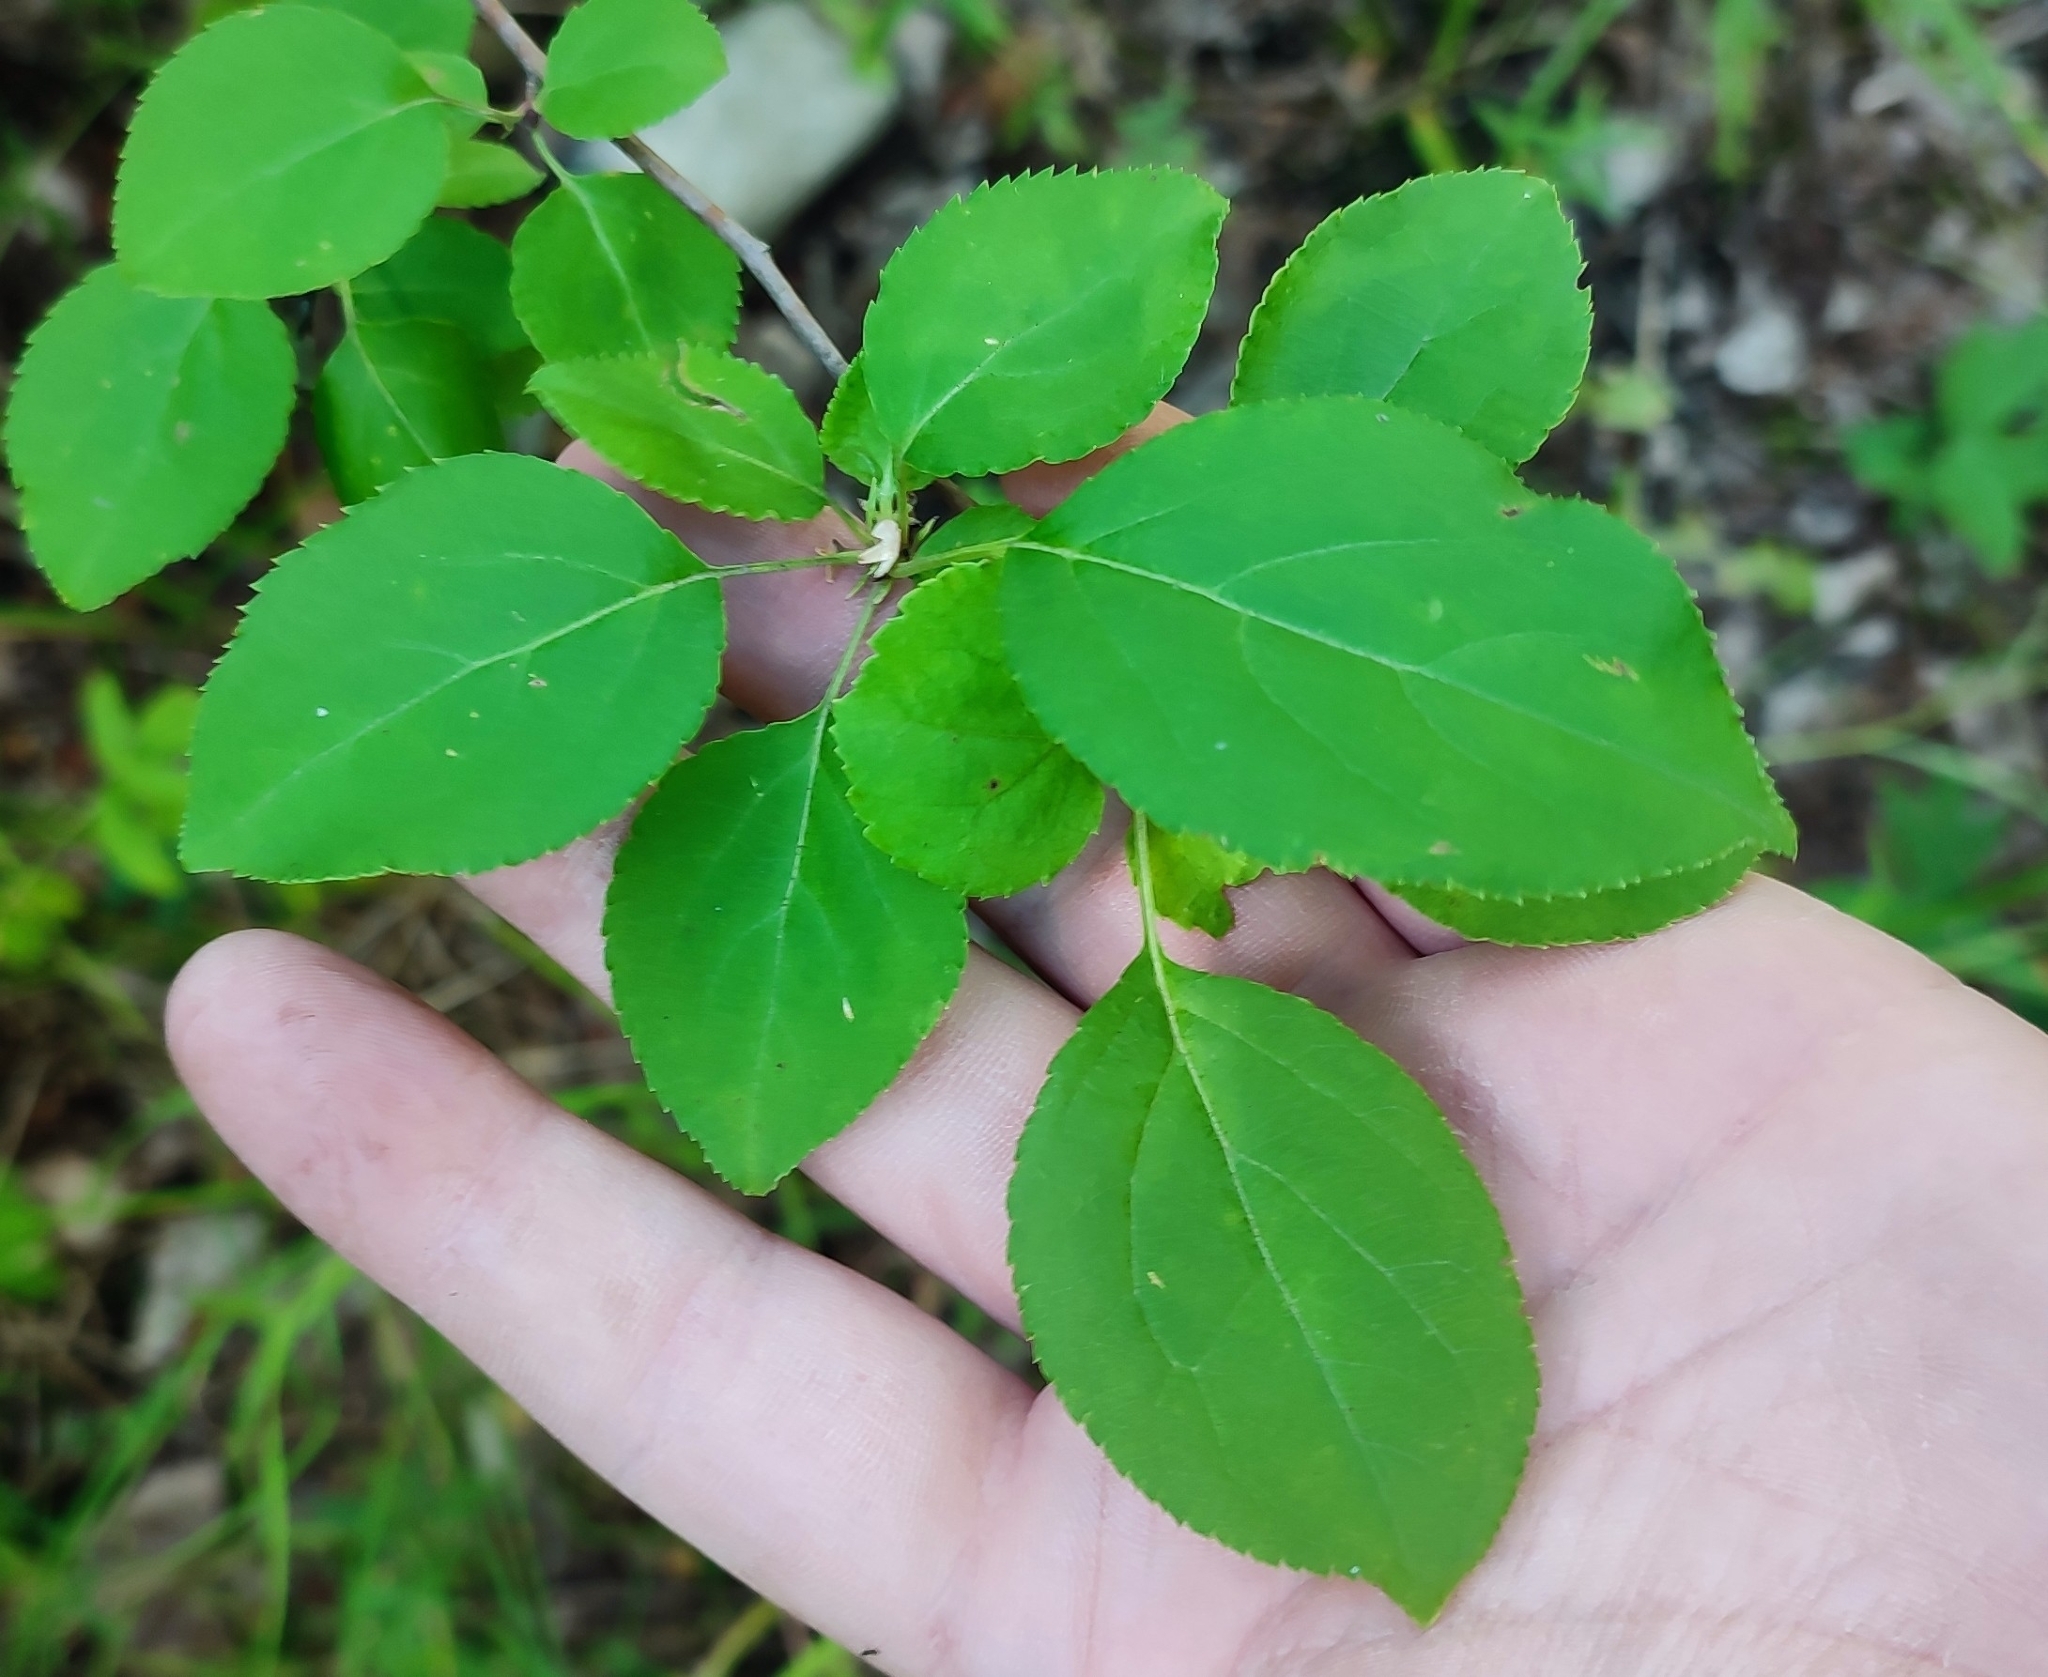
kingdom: Plantae
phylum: Tracheophyta
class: Magnoliopsida
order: Rosales
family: Rosaceae
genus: Malus
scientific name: Malus baccata
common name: Siberian crab
